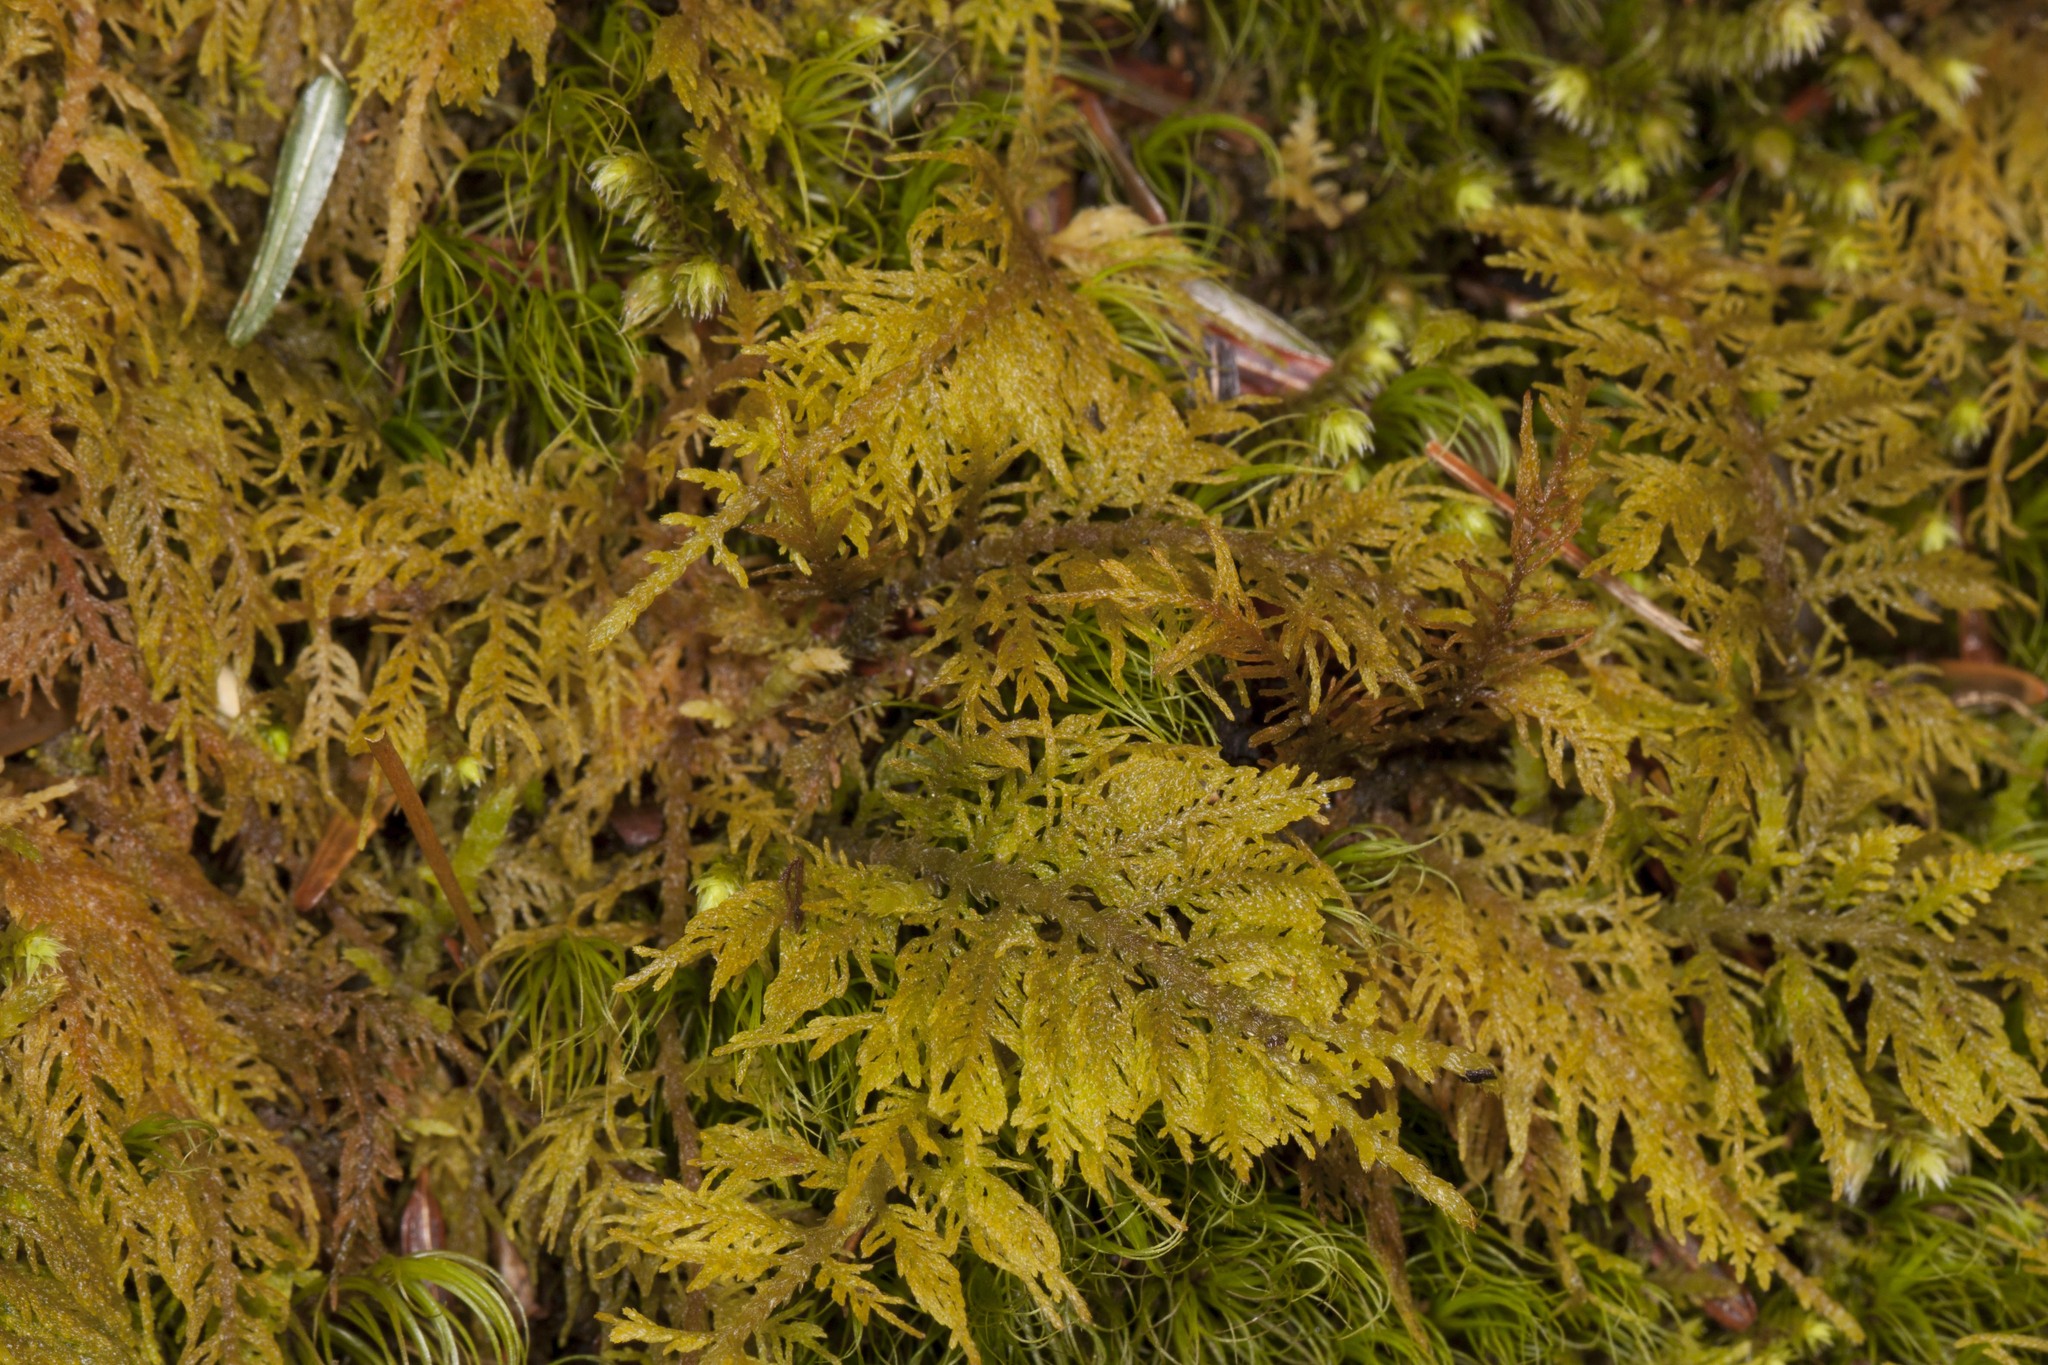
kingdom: Plantae
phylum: Bryophyta
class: Bryopsida
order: Hypnales
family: Thuidiaceae
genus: Thuidium
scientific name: Thuidium delicatulum
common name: Delicate fern moss
